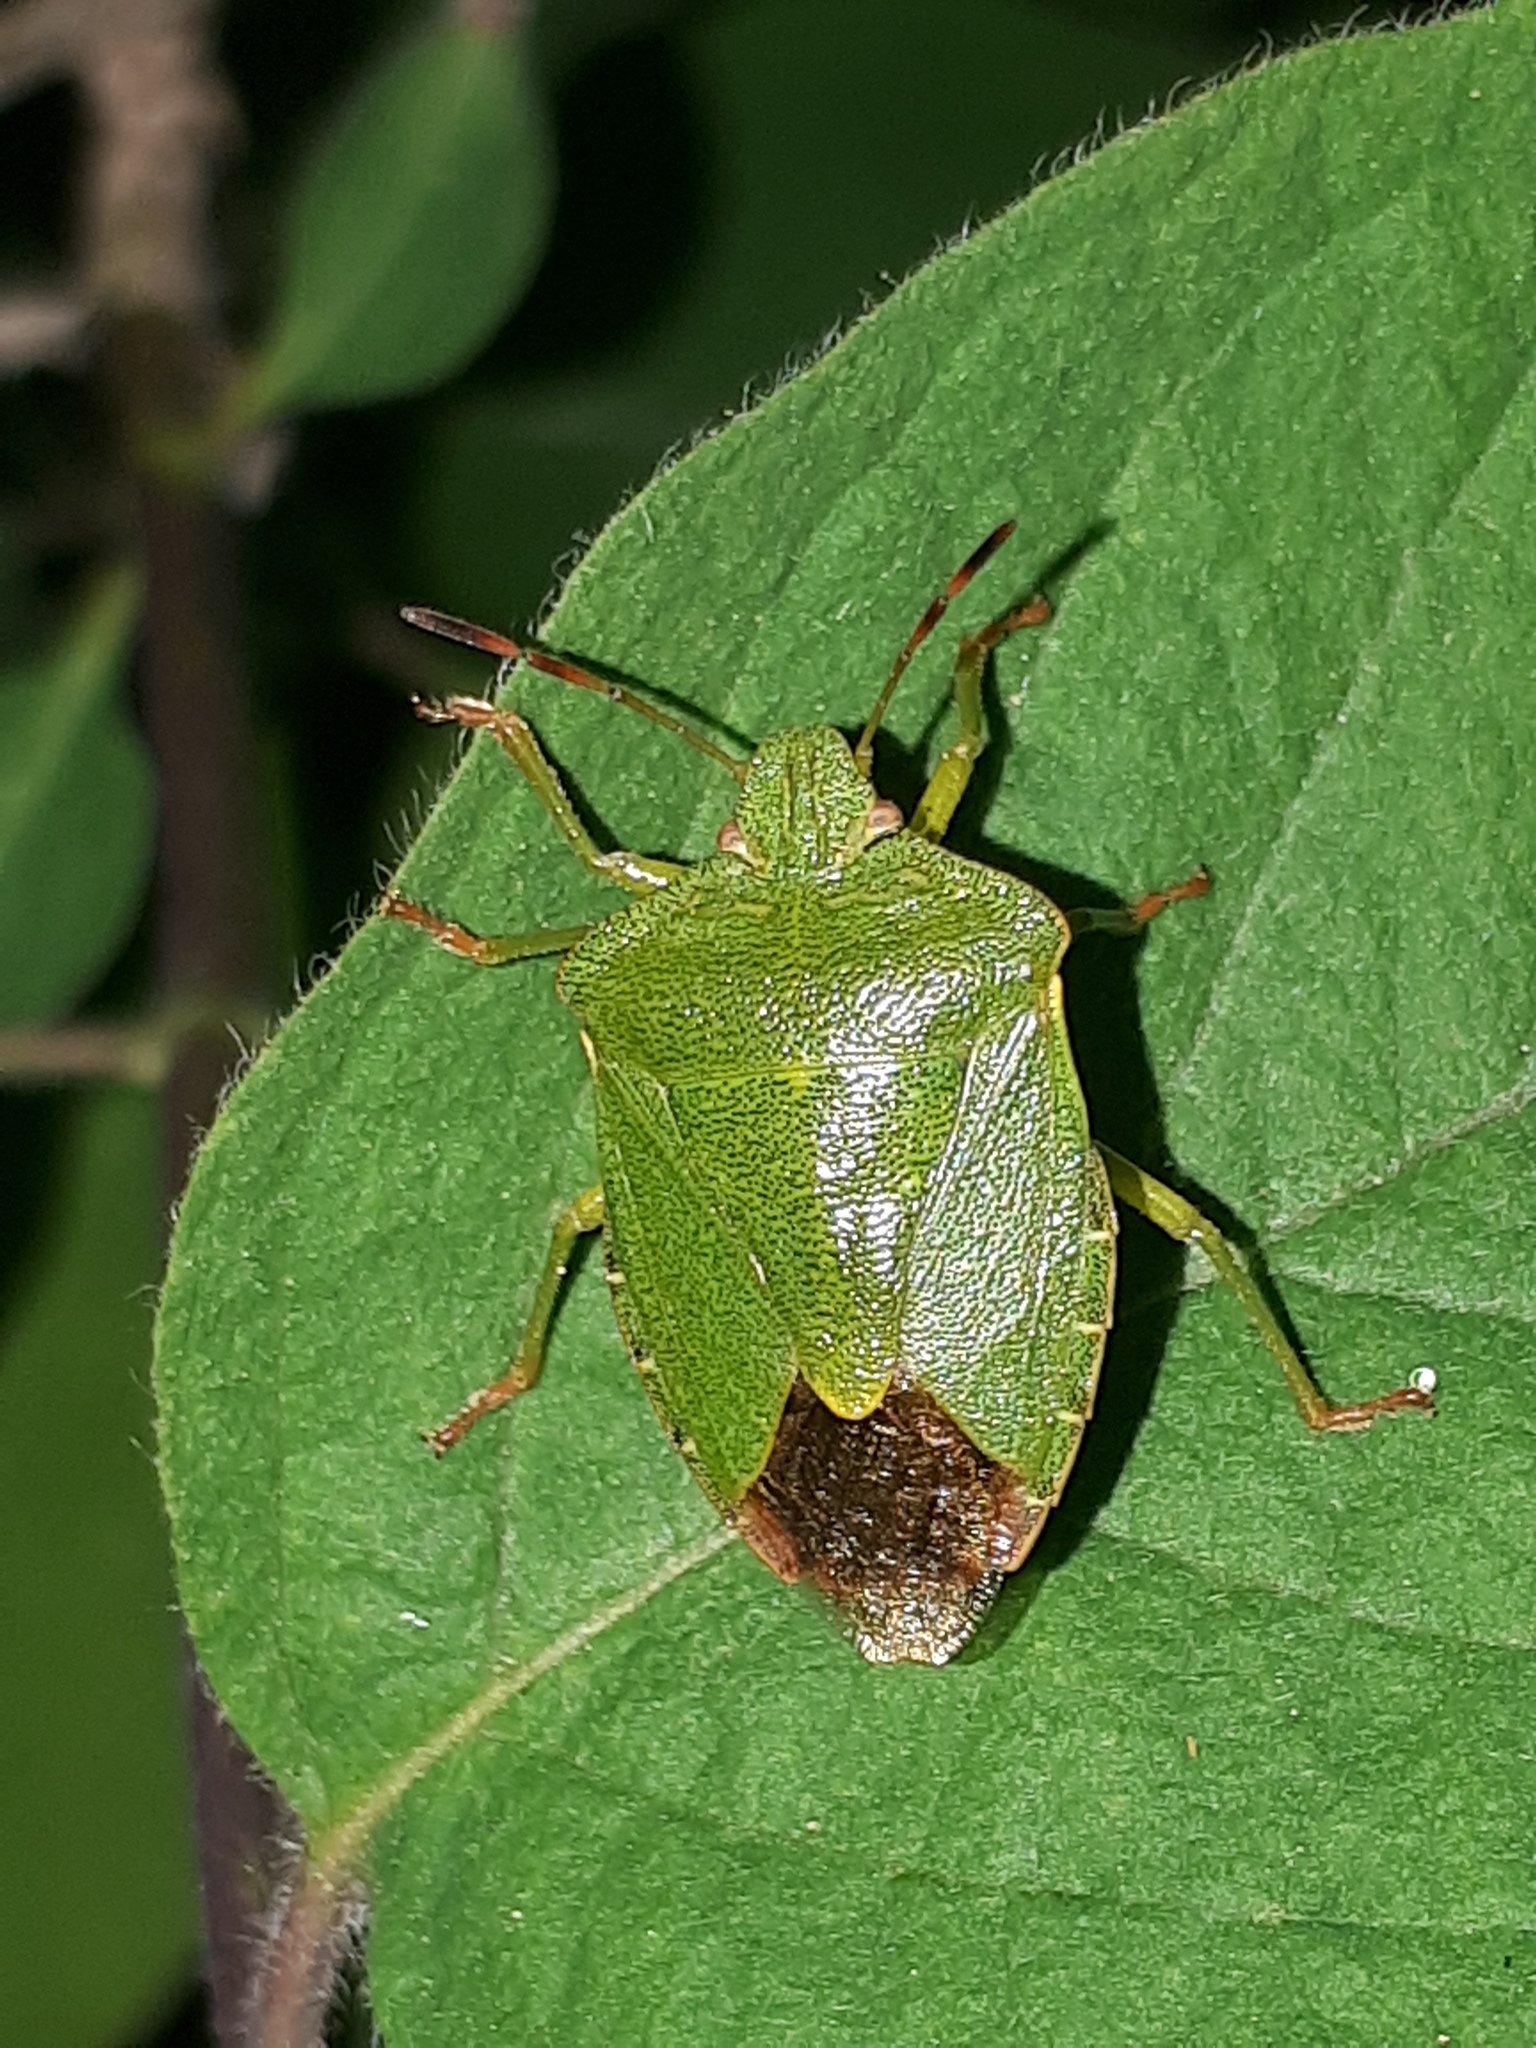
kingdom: Animalia
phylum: Arthropoda
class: Insecta
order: Hemiptera
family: Pentatomidae
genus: Palomena
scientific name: Palomena prasina
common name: Green shieldbug
